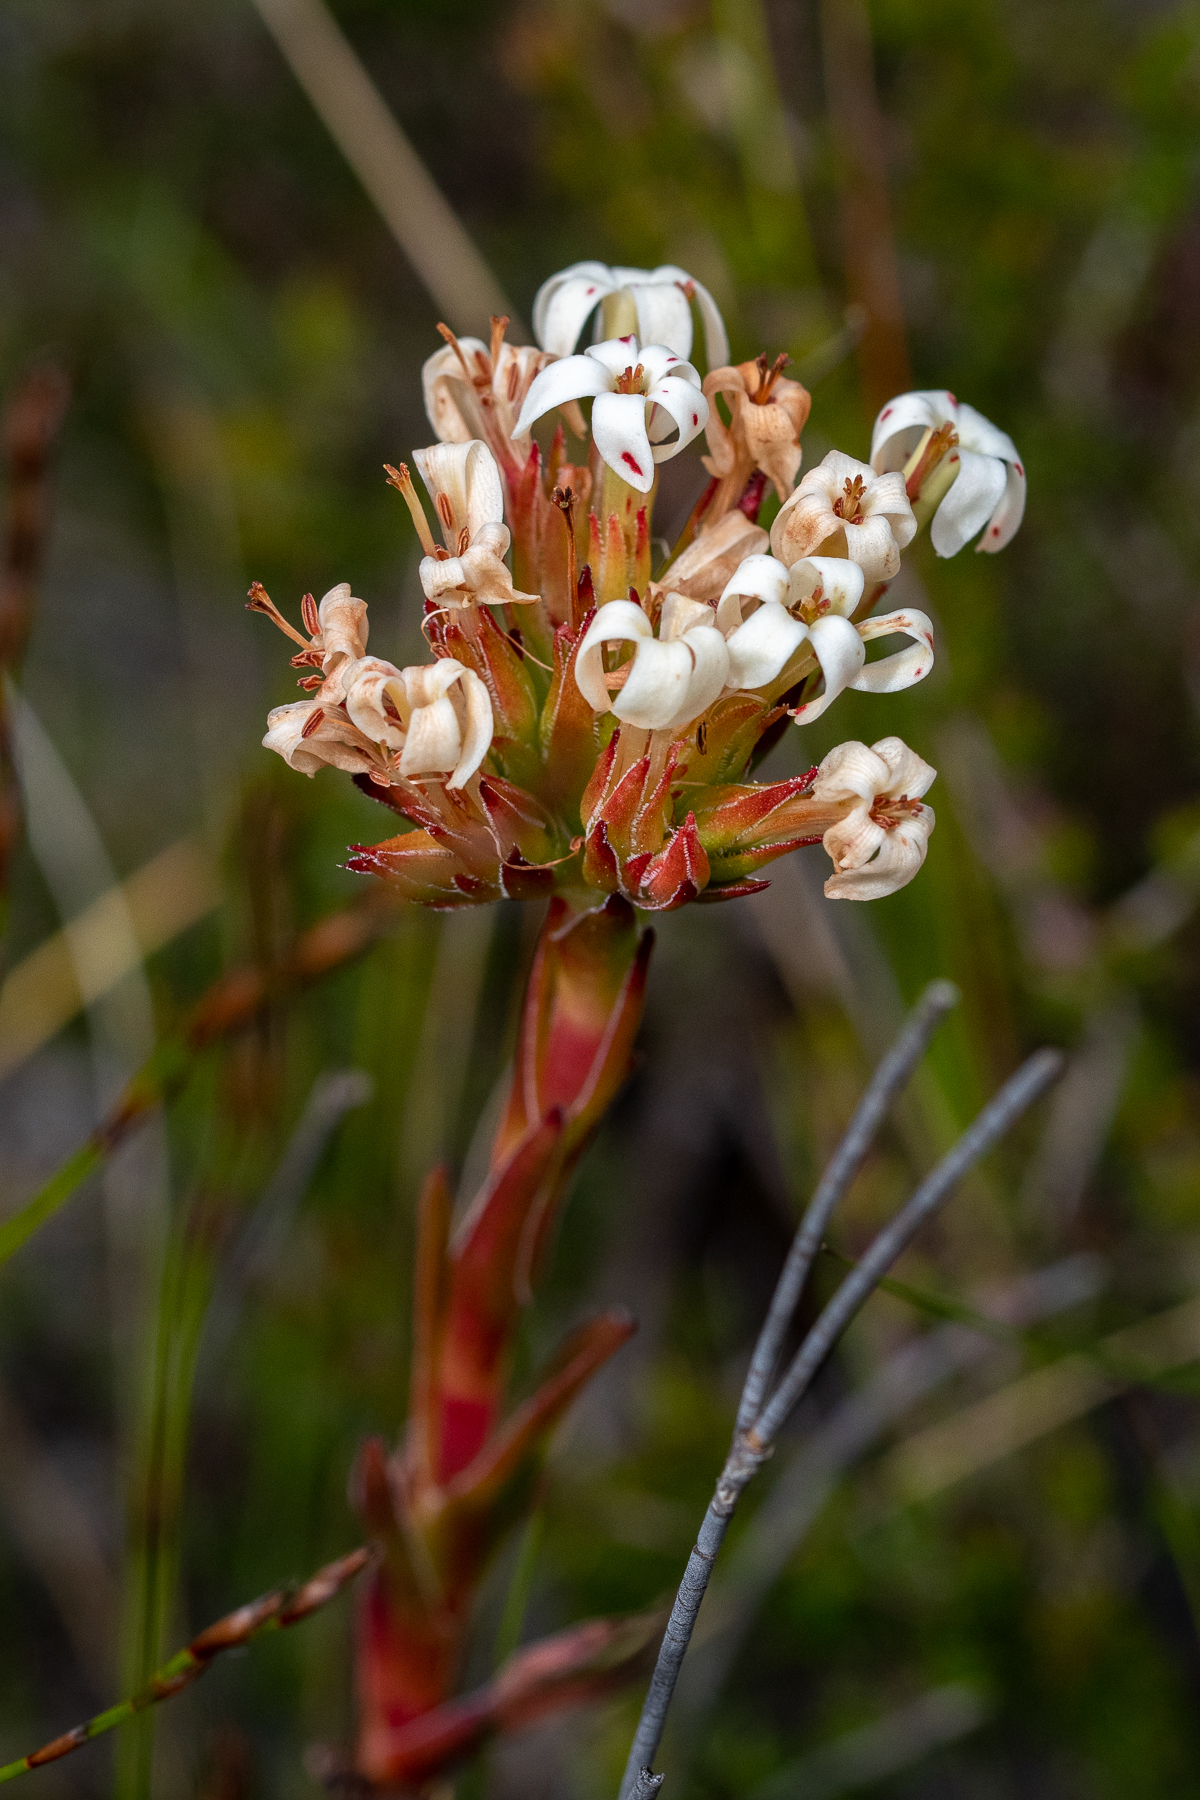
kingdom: Plantae
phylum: Tracheophyta
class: Magnoliopsida
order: Saxifragales
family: Crassulaceae
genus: Crassula
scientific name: Crassula fascicularis
